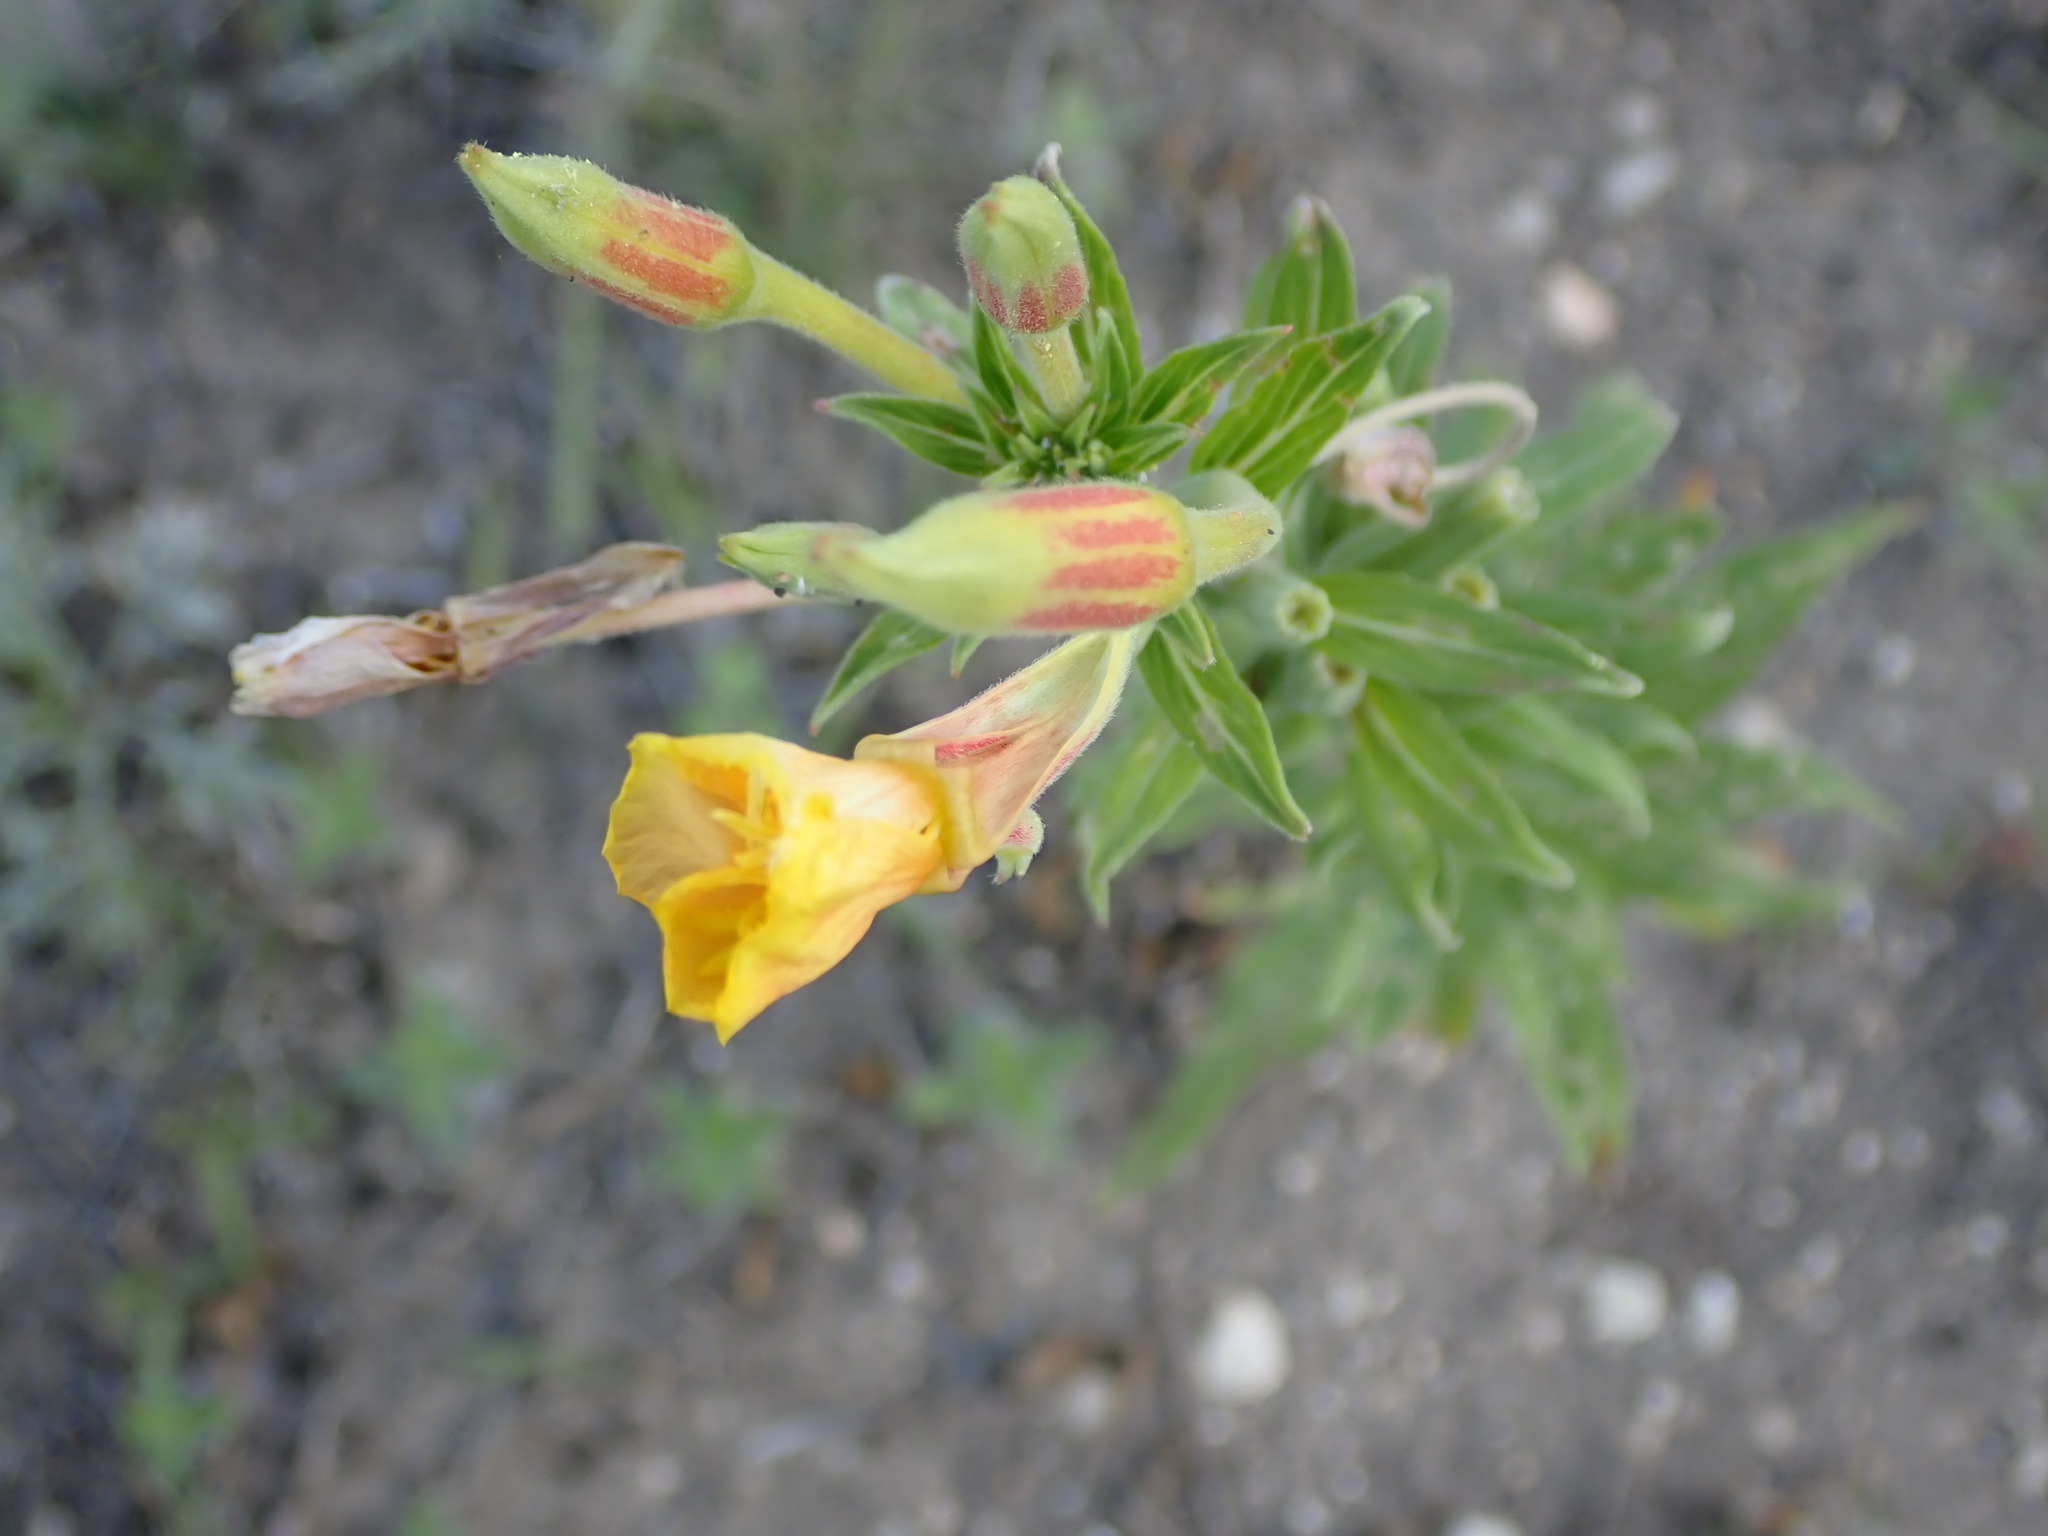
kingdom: Plantae
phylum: Tracheophyta
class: Magnoliopsida
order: Myrtales
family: Onagraceae
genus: Oenothera
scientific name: Oenothera biennis
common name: Common evening-primrose
